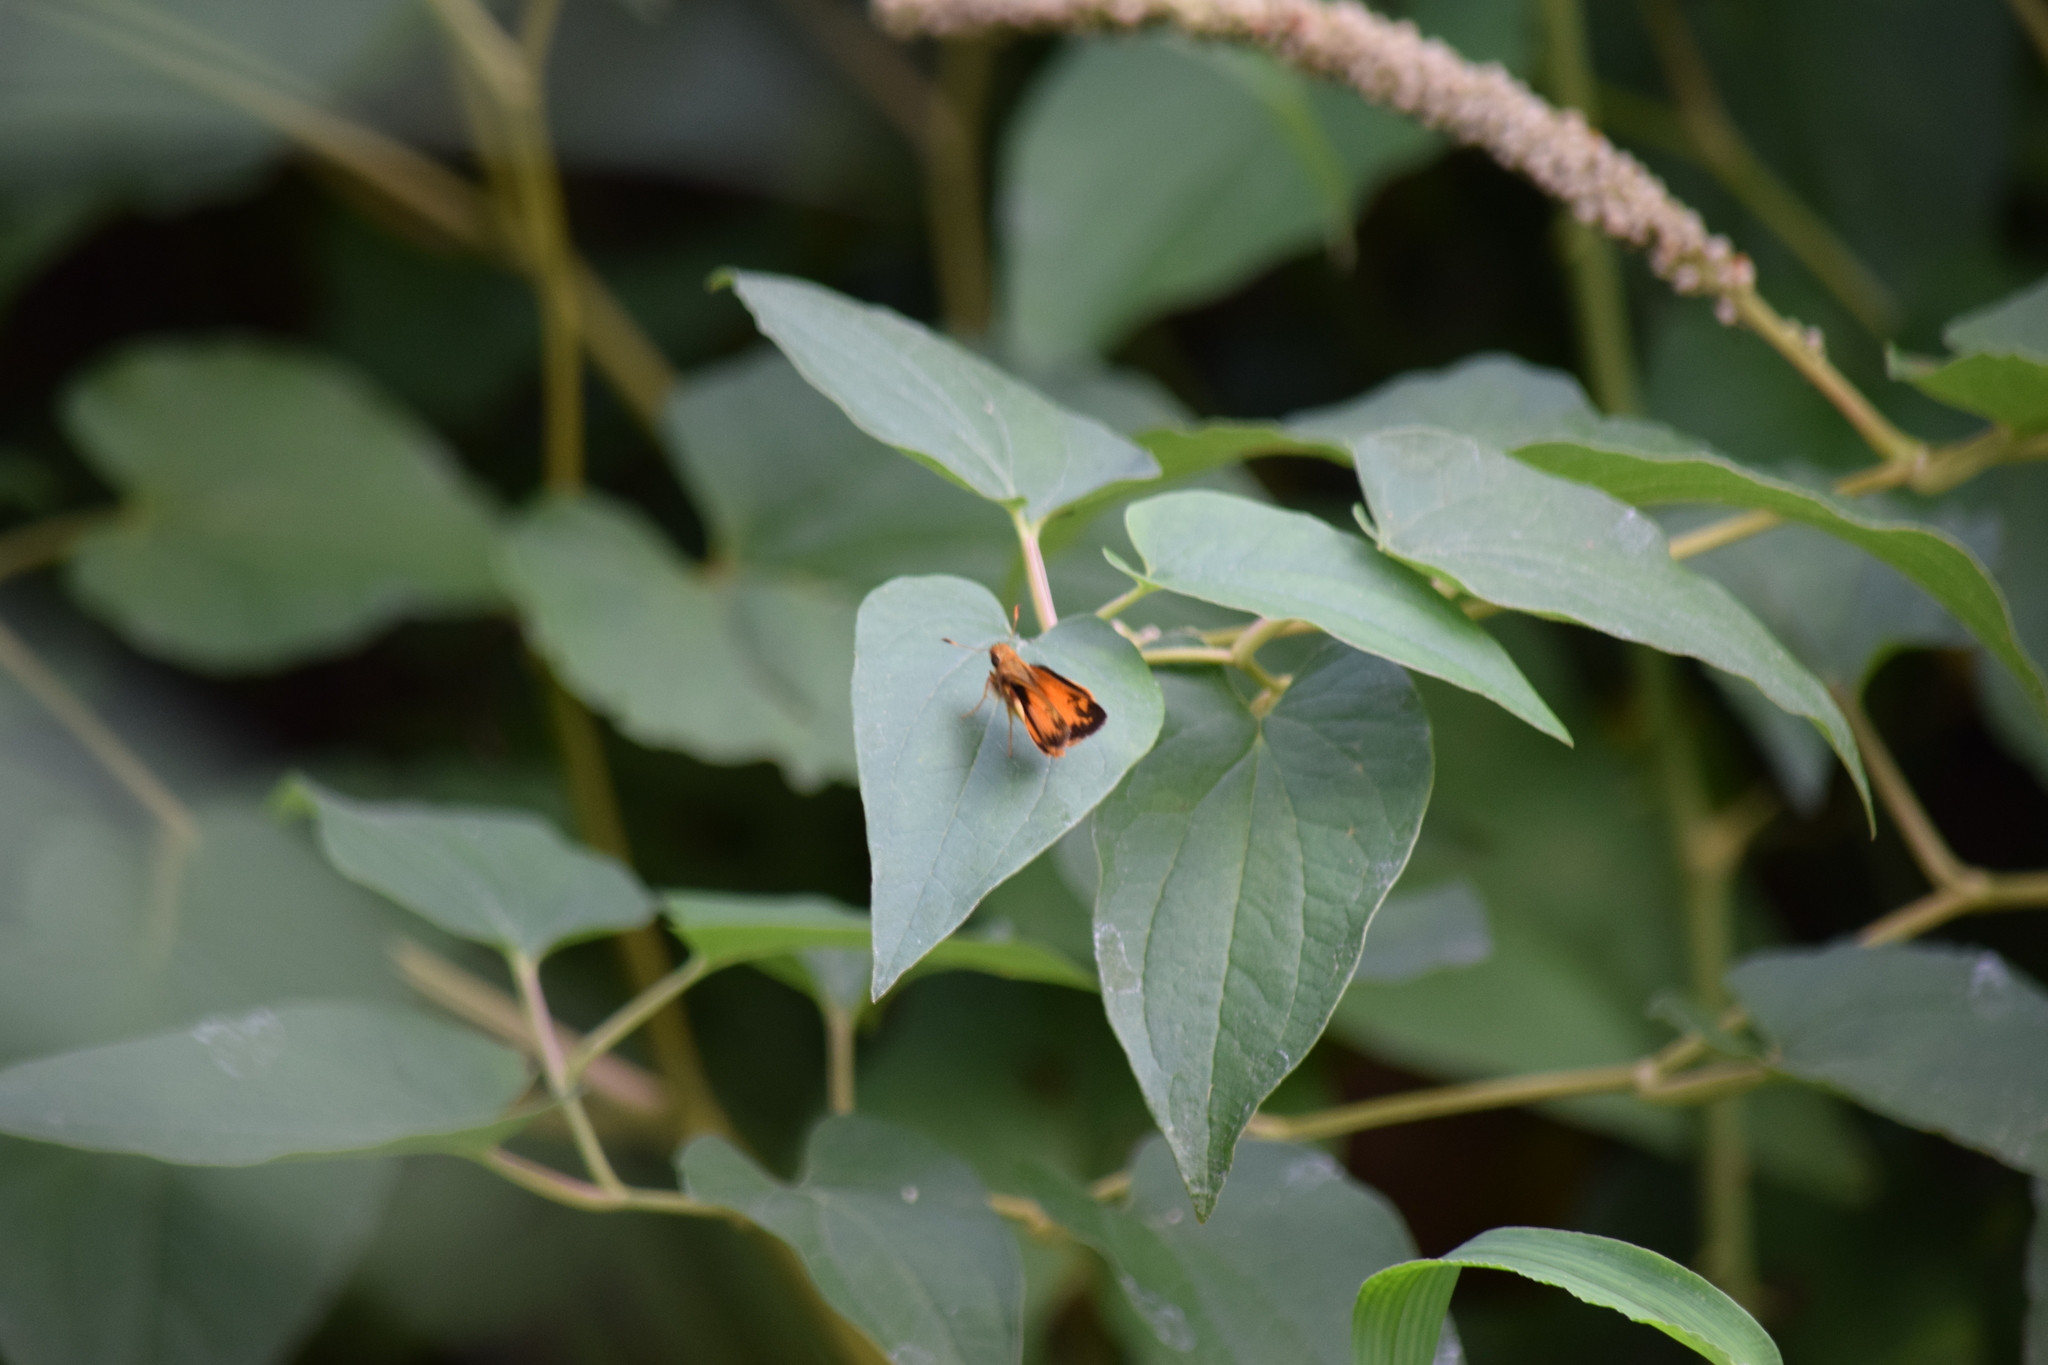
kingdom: Animalia
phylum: Arthropoda
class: Insecta
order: Lepidoptera
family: Hesperiidae
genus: Lon
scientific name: Lon zabulon
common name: Zabulon skipper
